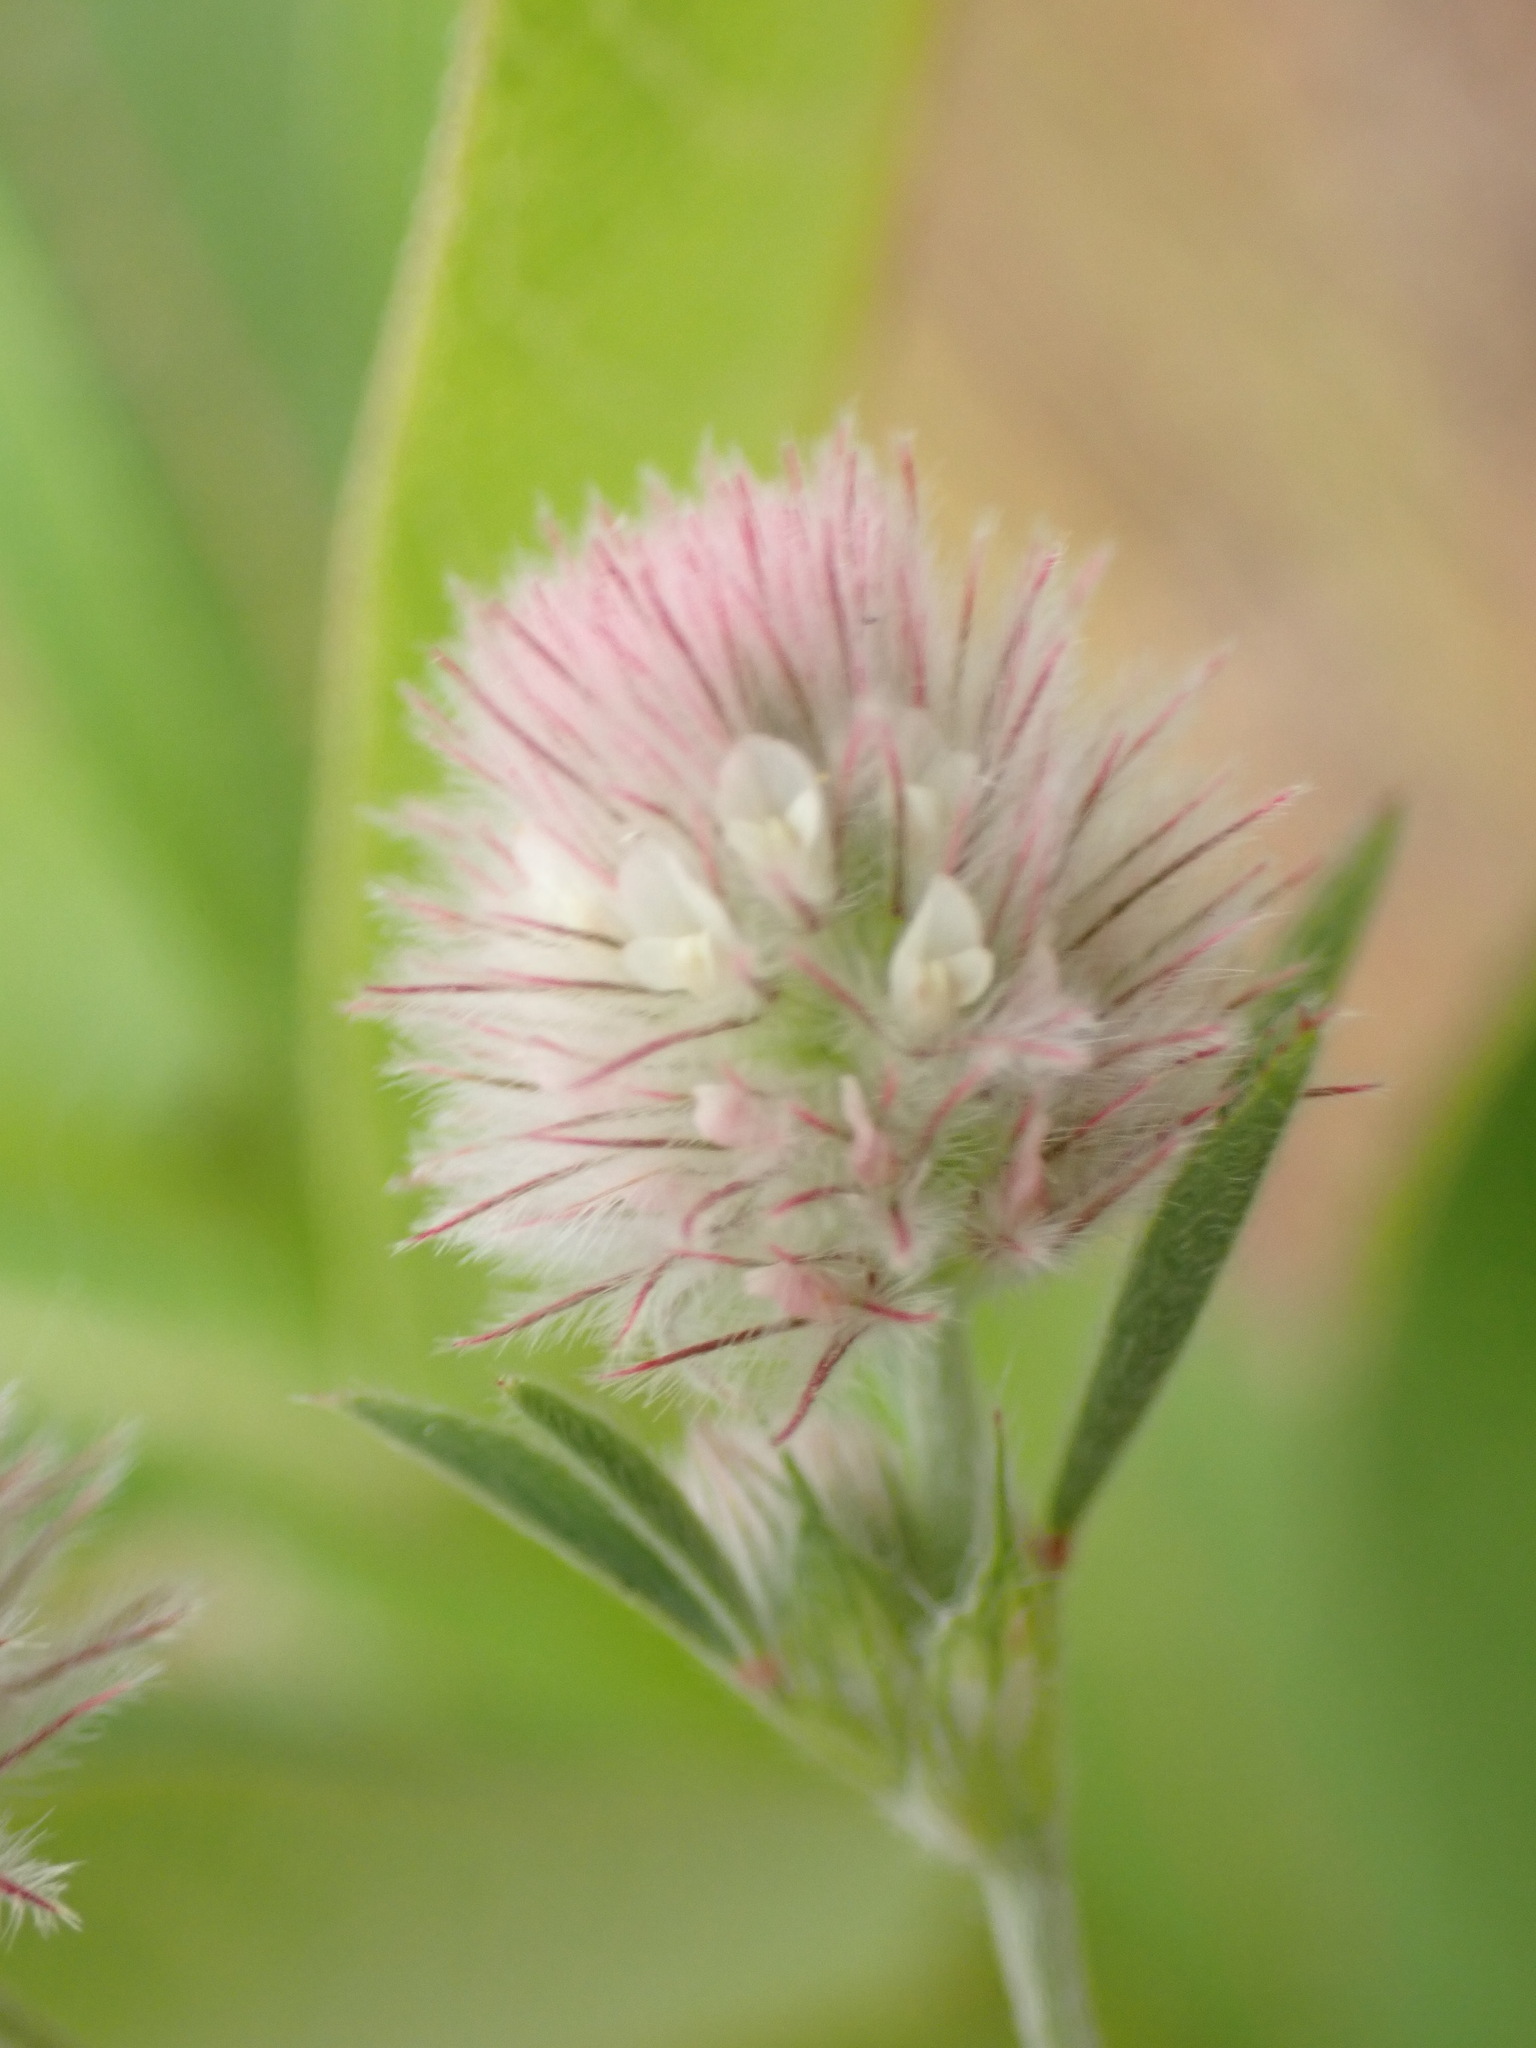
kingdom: Plantae
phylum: Tracheophyta
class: Magnoliopsida
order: Fabales
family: Fabaceae
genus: Trifolium
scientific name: Trifolium arvense
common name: Hare's-foot clover
